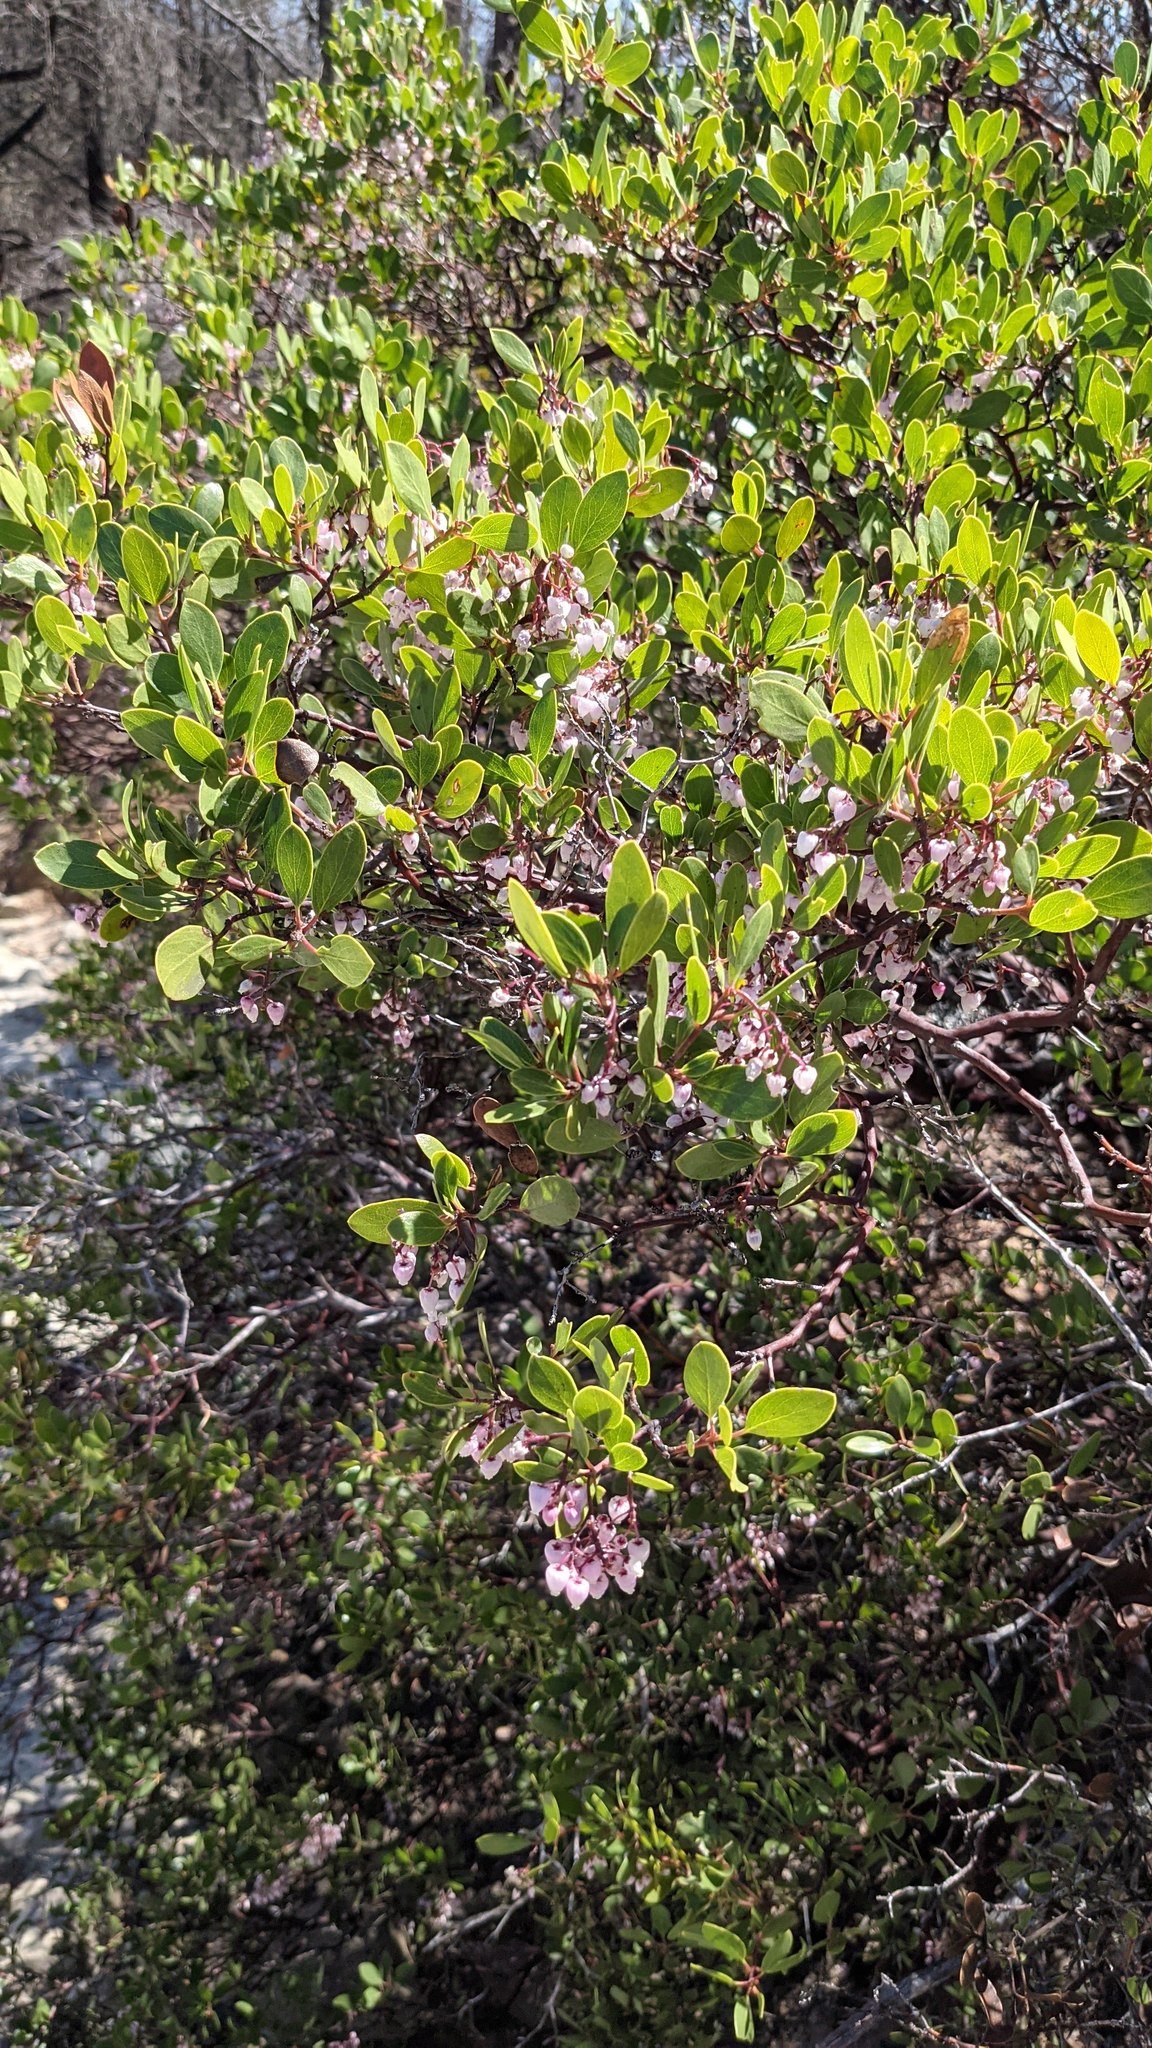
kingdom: Plantae
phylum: Tracheophyta
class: Magnoliopsida
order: Ericales
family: Ericaceae
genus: Arctostaphylos
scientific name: Arctostaphylos stanfordiana
